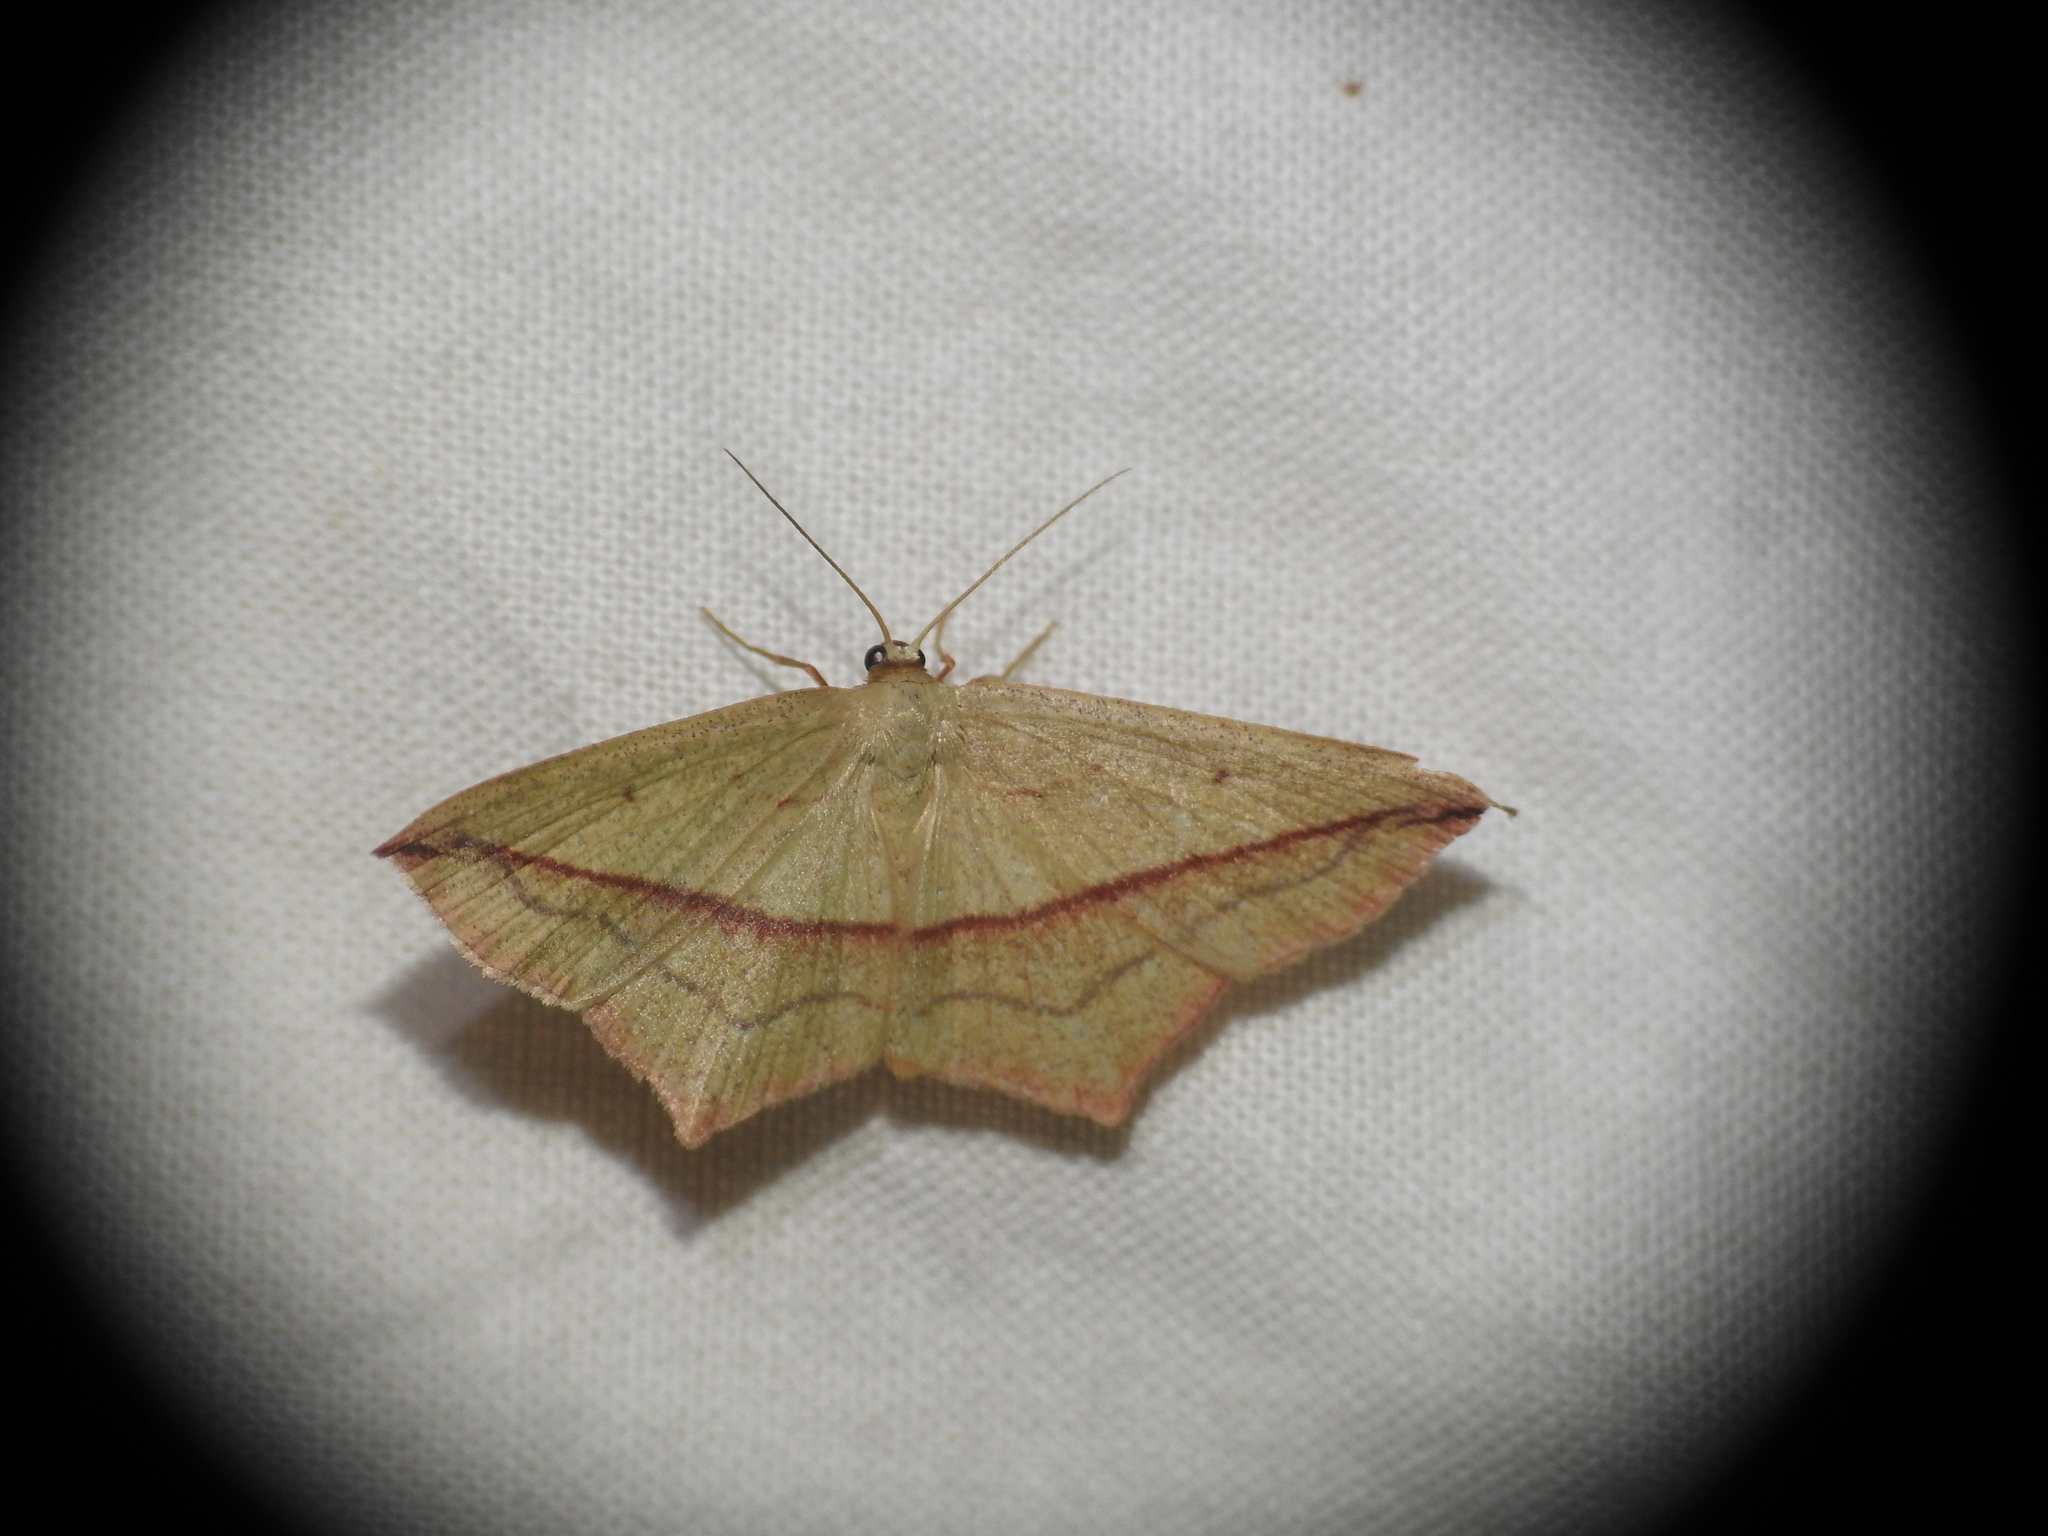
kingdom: Animalia
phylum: Arthropoda
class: Insecta
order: Lepidoptera
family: Geometridae
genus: Timandra
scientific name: Timandra comae
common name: Blood-vein
